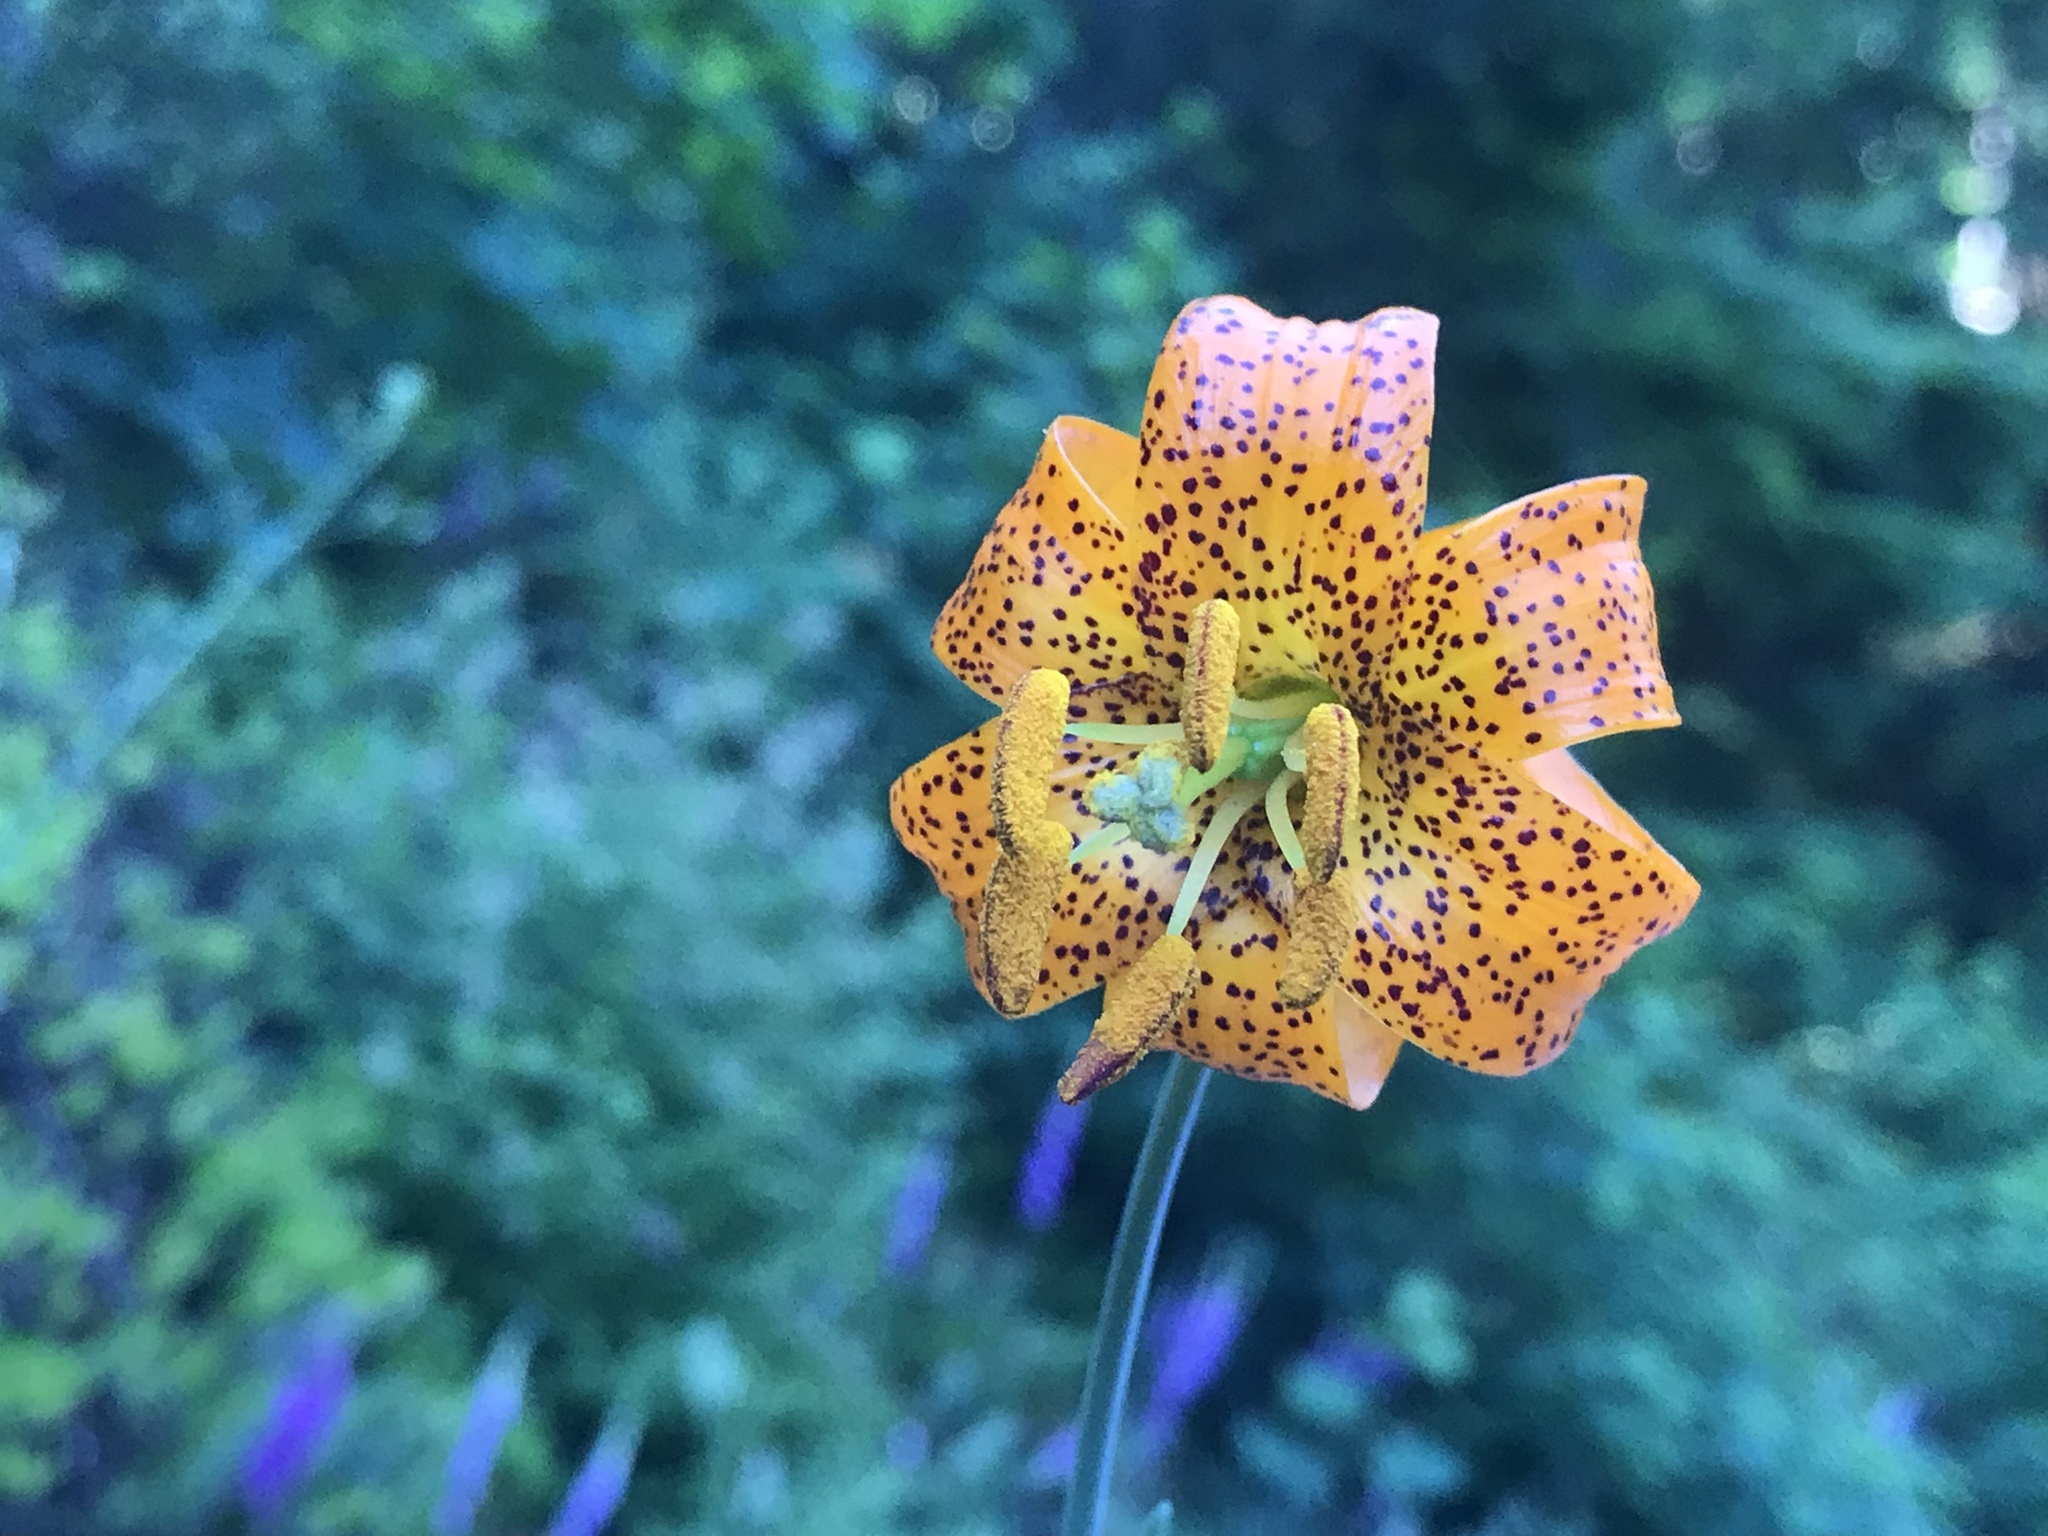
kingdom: Plantae
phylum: Tracheophyta
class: Liliopsida
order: Liliales
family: Liliaceae
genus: Lilium
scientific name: Lilium columbianum
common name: Columbia lily
